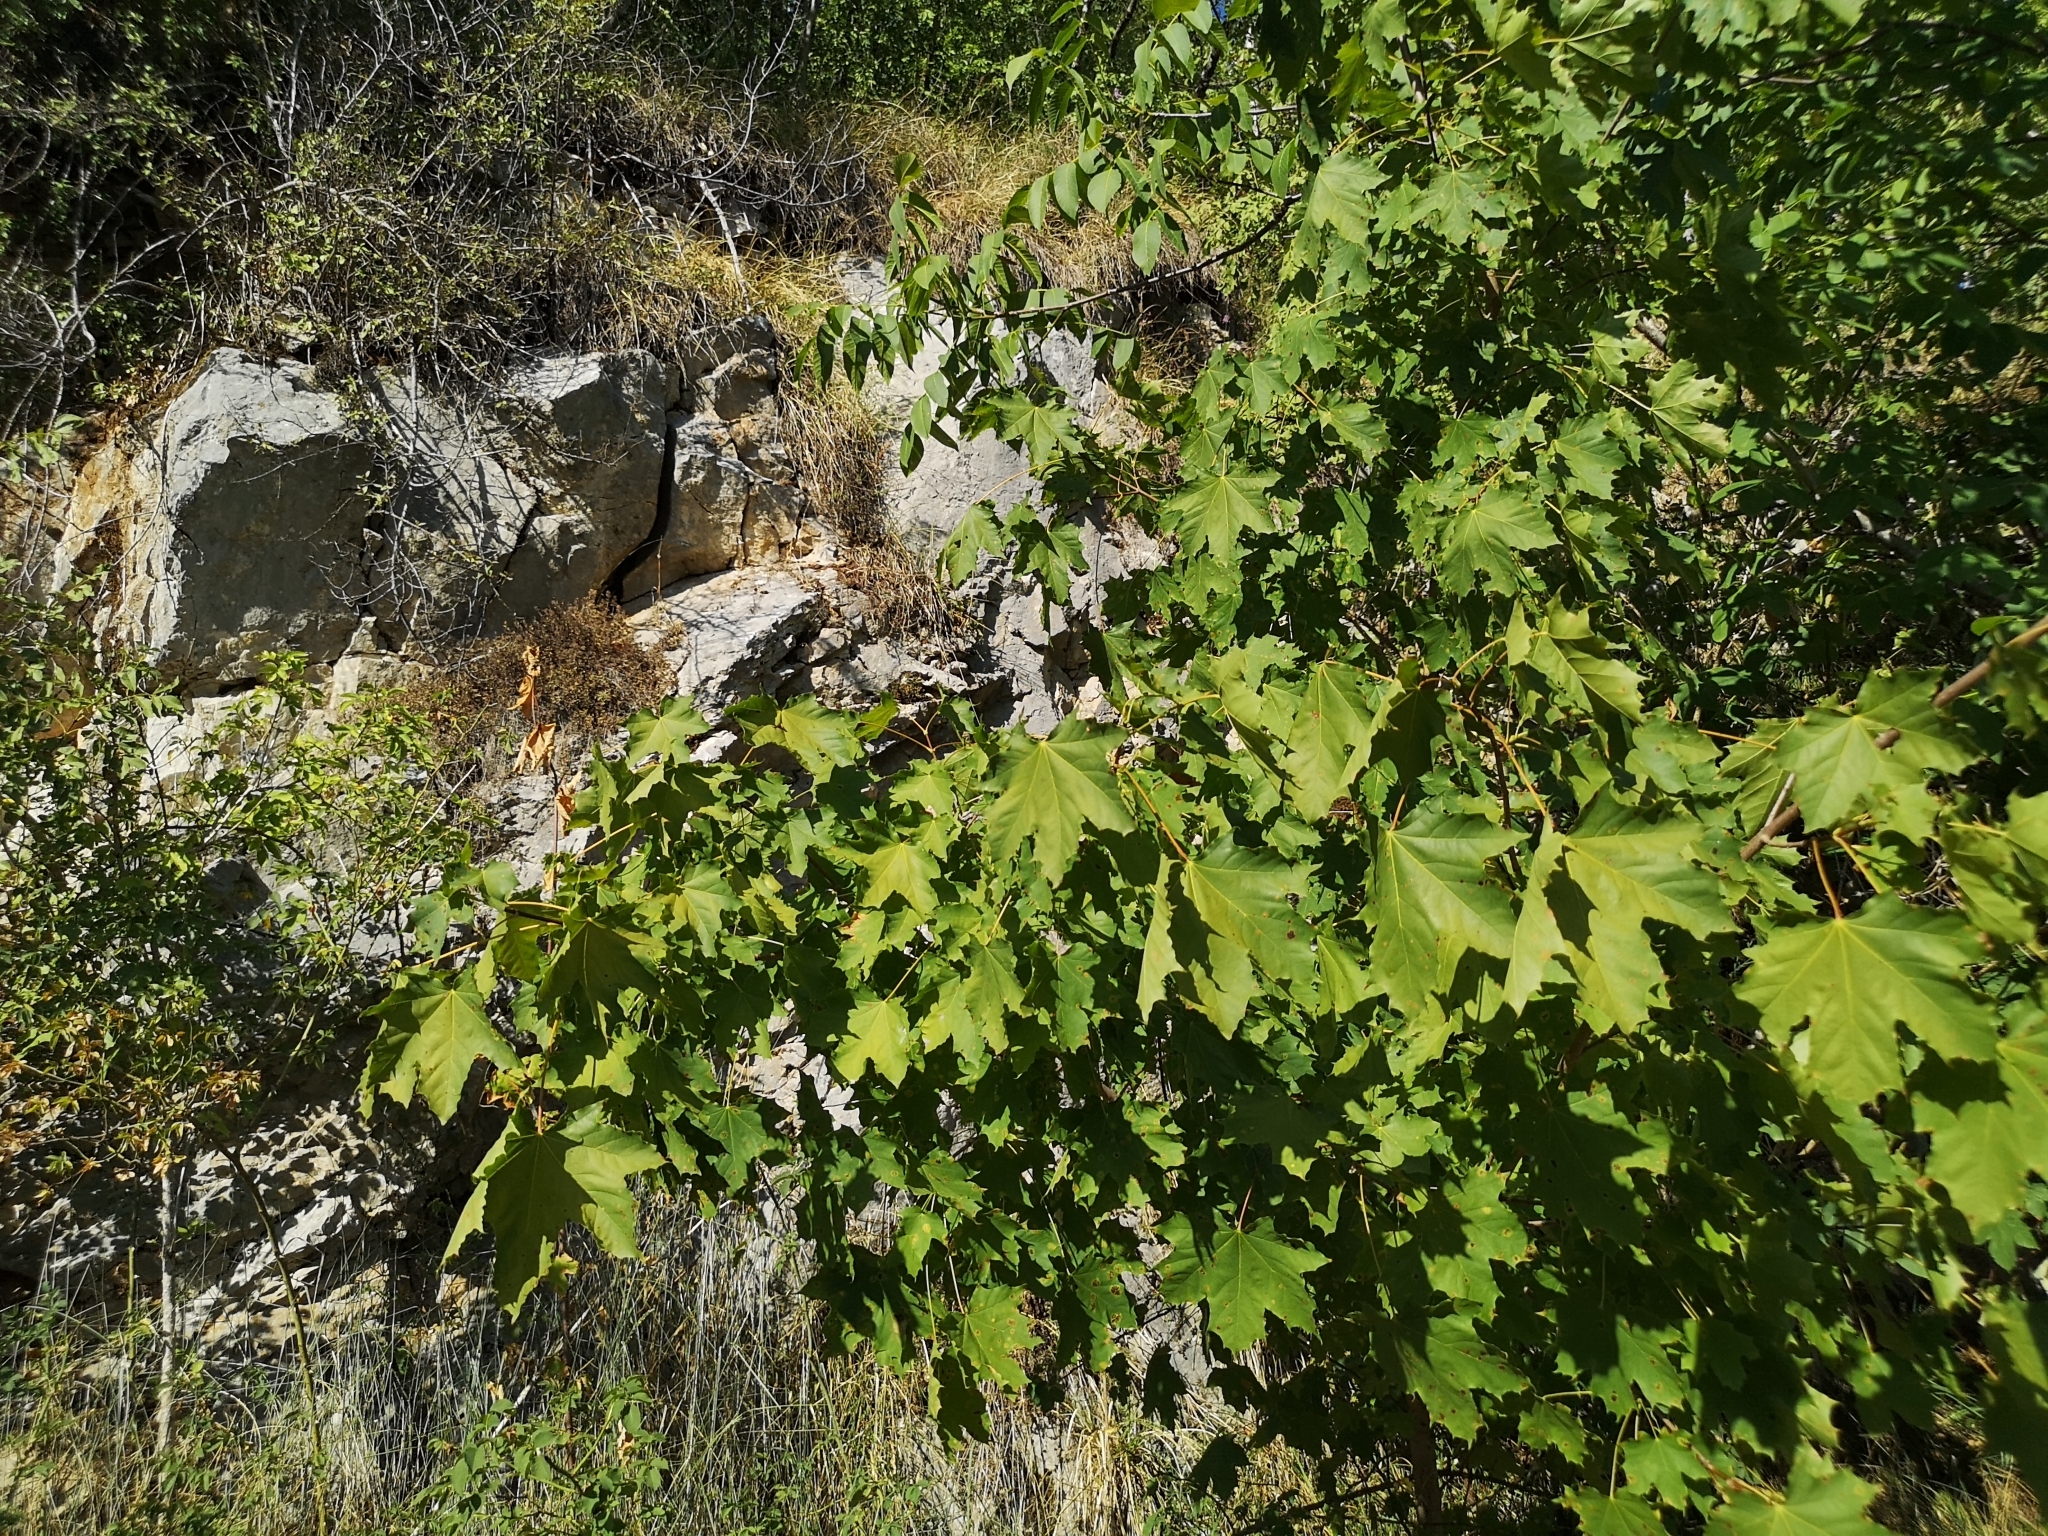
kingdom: Plantae
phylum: Tracheophyta
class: Magnoliopsida
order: Sapindales
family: Sapindaceae
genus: Acer
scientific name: Acer platanoides
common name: Norway maple
